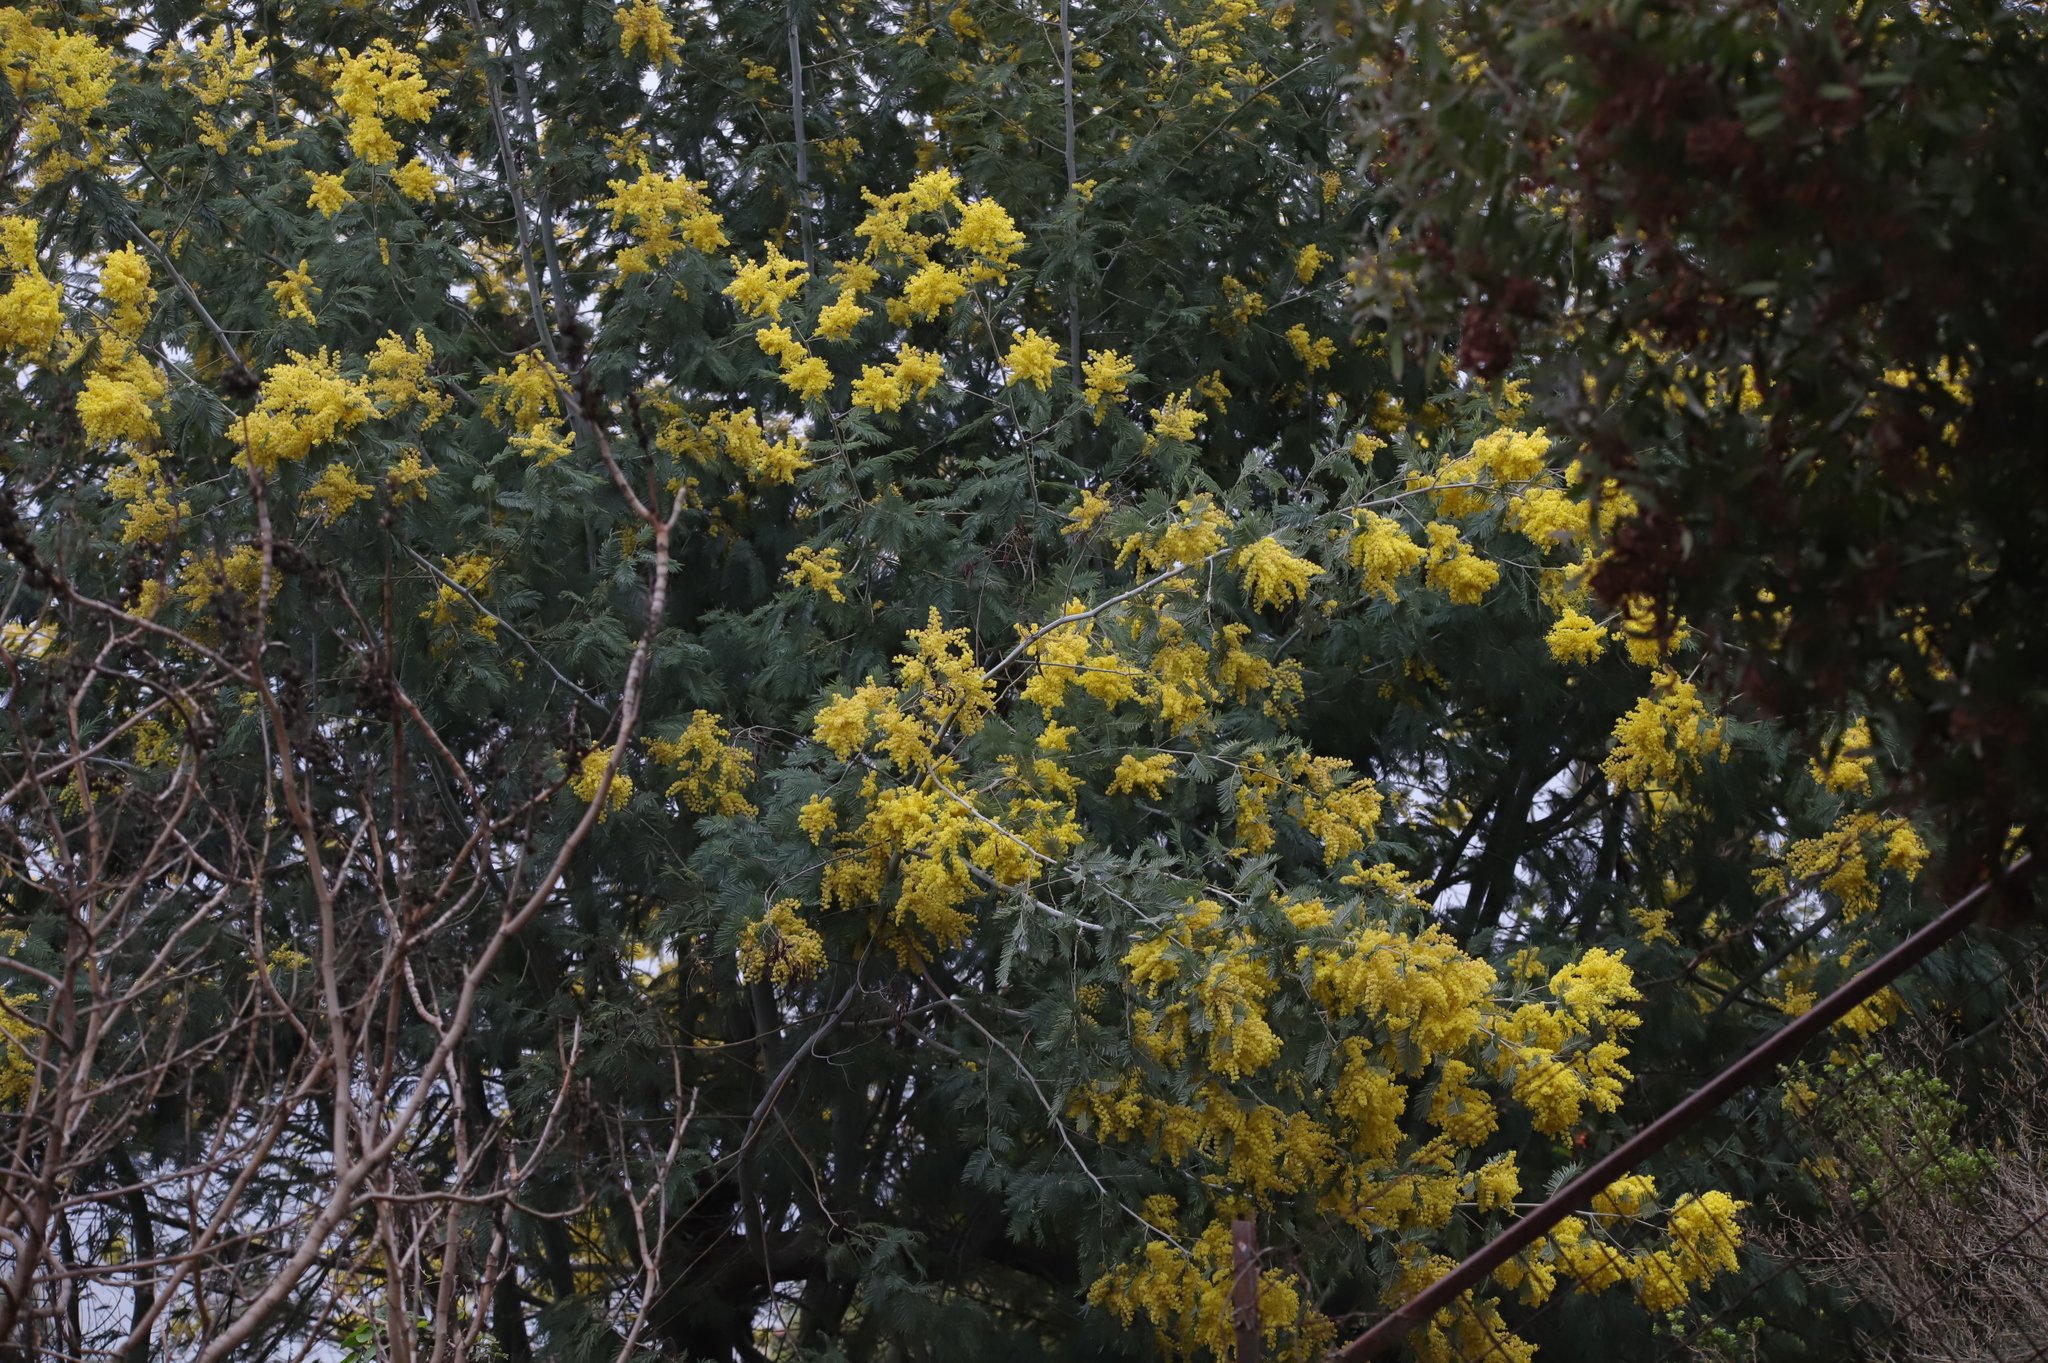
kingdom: Plantae
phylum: Tracheophyta
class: Magnoliopsida
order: Fabales
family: Fabaceae
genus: Acacia
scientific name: Acacia dealbata
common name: Silver wattle
